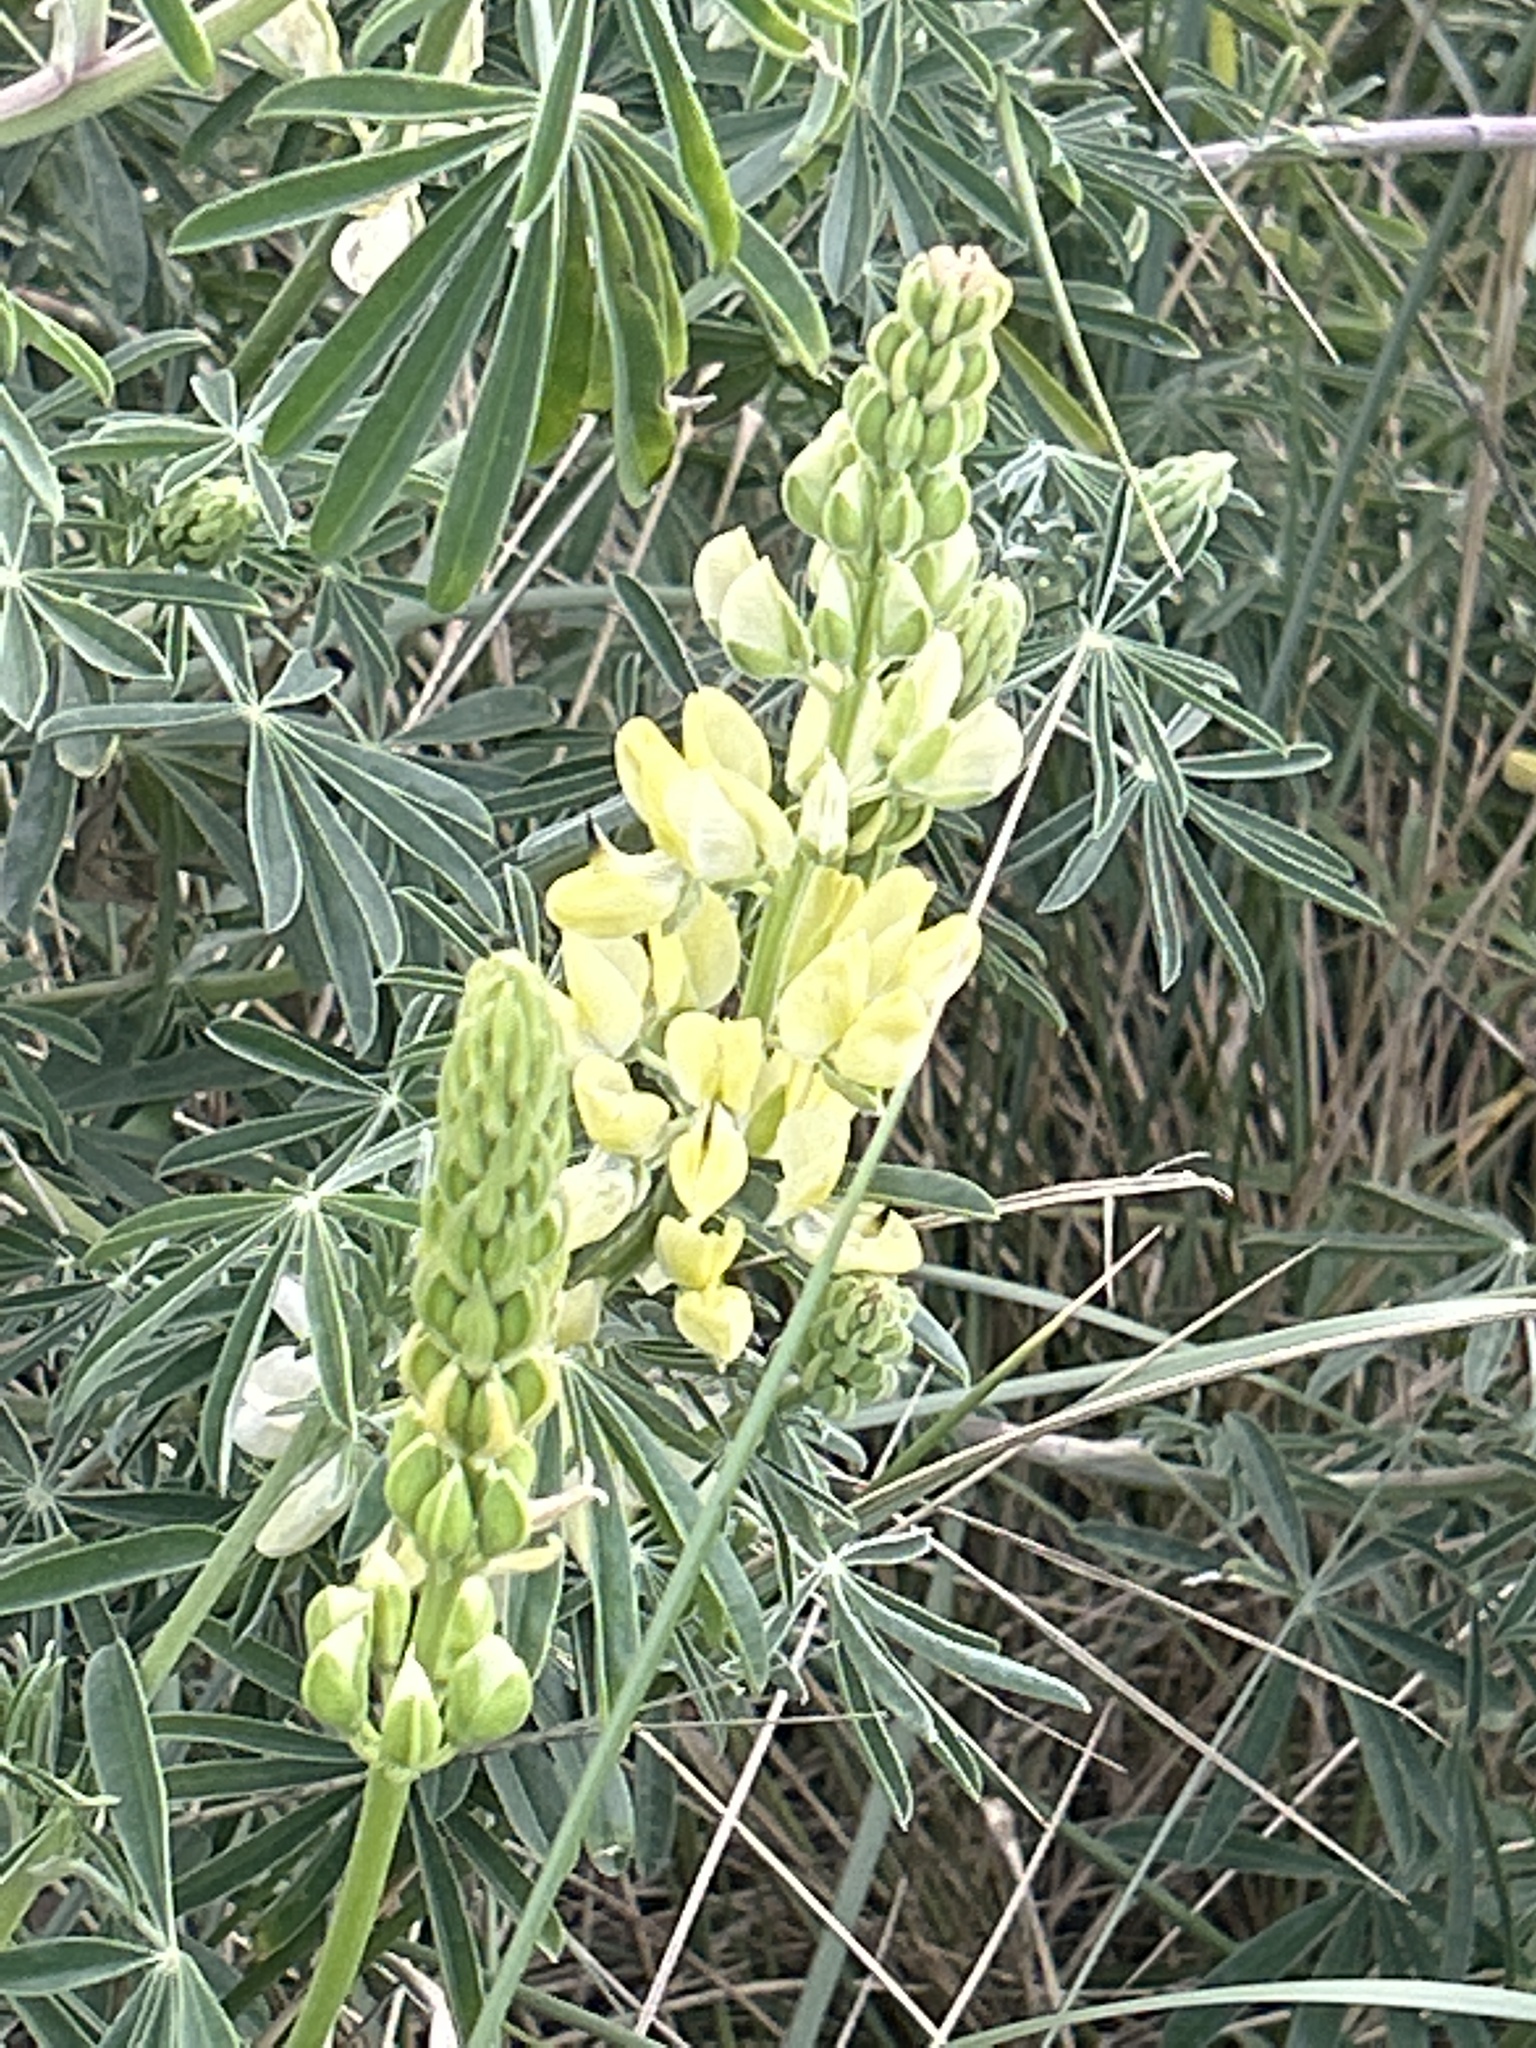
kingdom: Plantae
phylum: Tracheophyta
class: Magnoliopsida
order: Fabales
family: Fabaceae
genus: Lupinus
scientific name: Lupinus arboreus
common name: Yellow bush lupine
